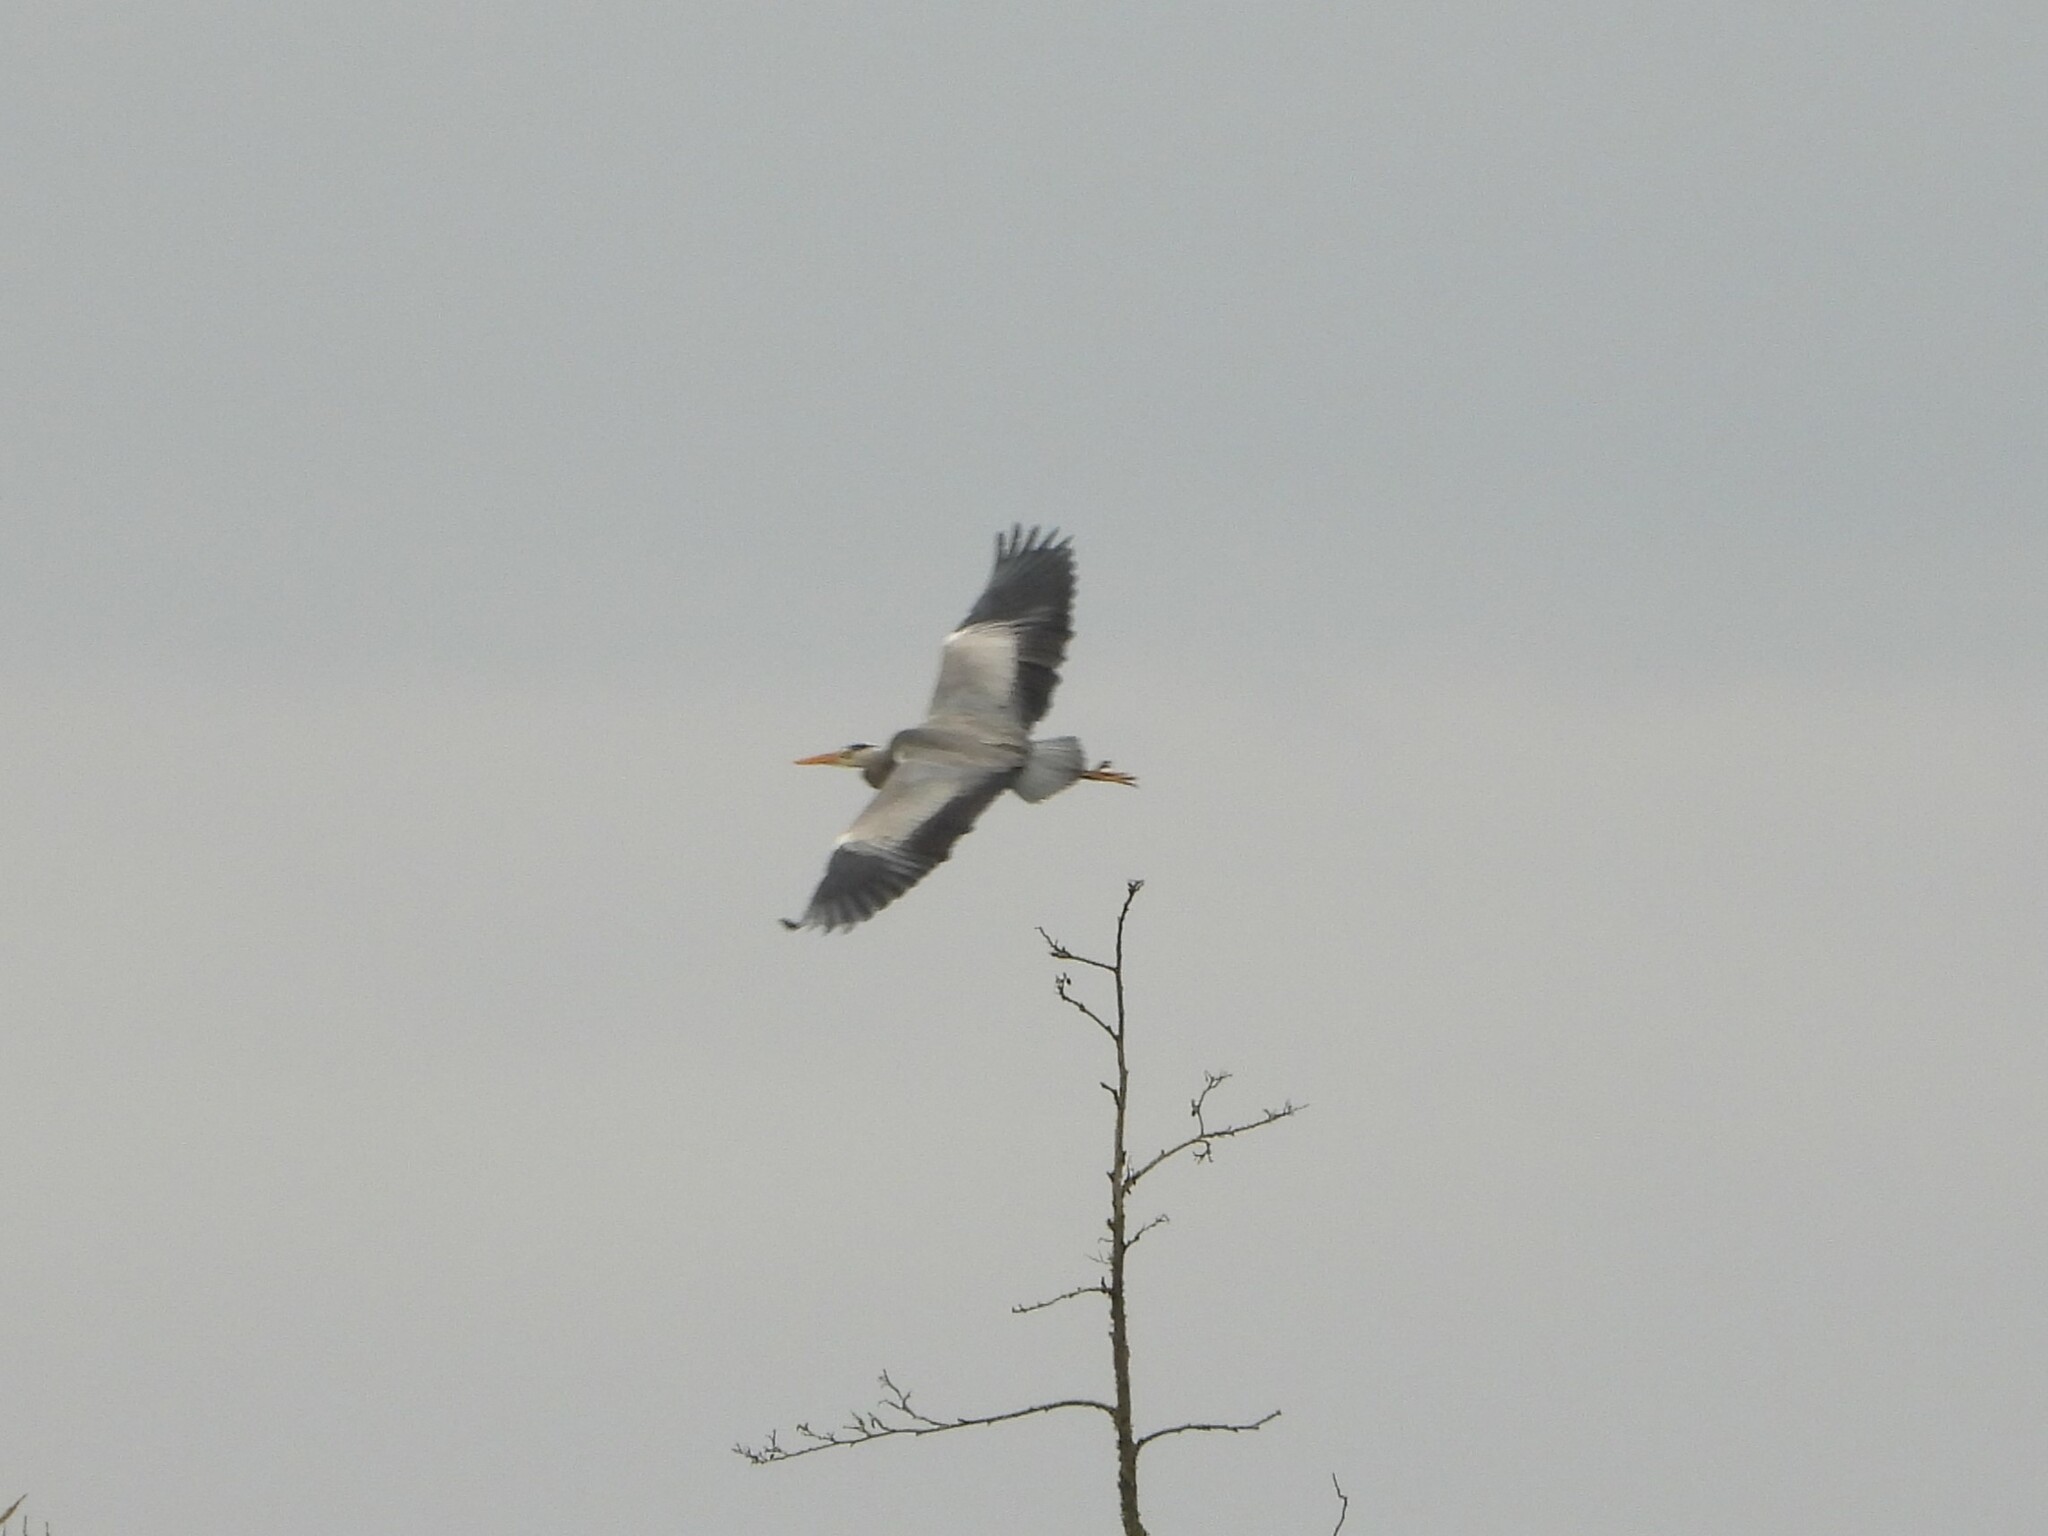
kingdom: Animalia
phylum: Chordata
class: Aves
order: Pelecaniformes
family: Ardeidae
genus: Ardea
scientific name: Ardea cinerea
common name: Grey heron
